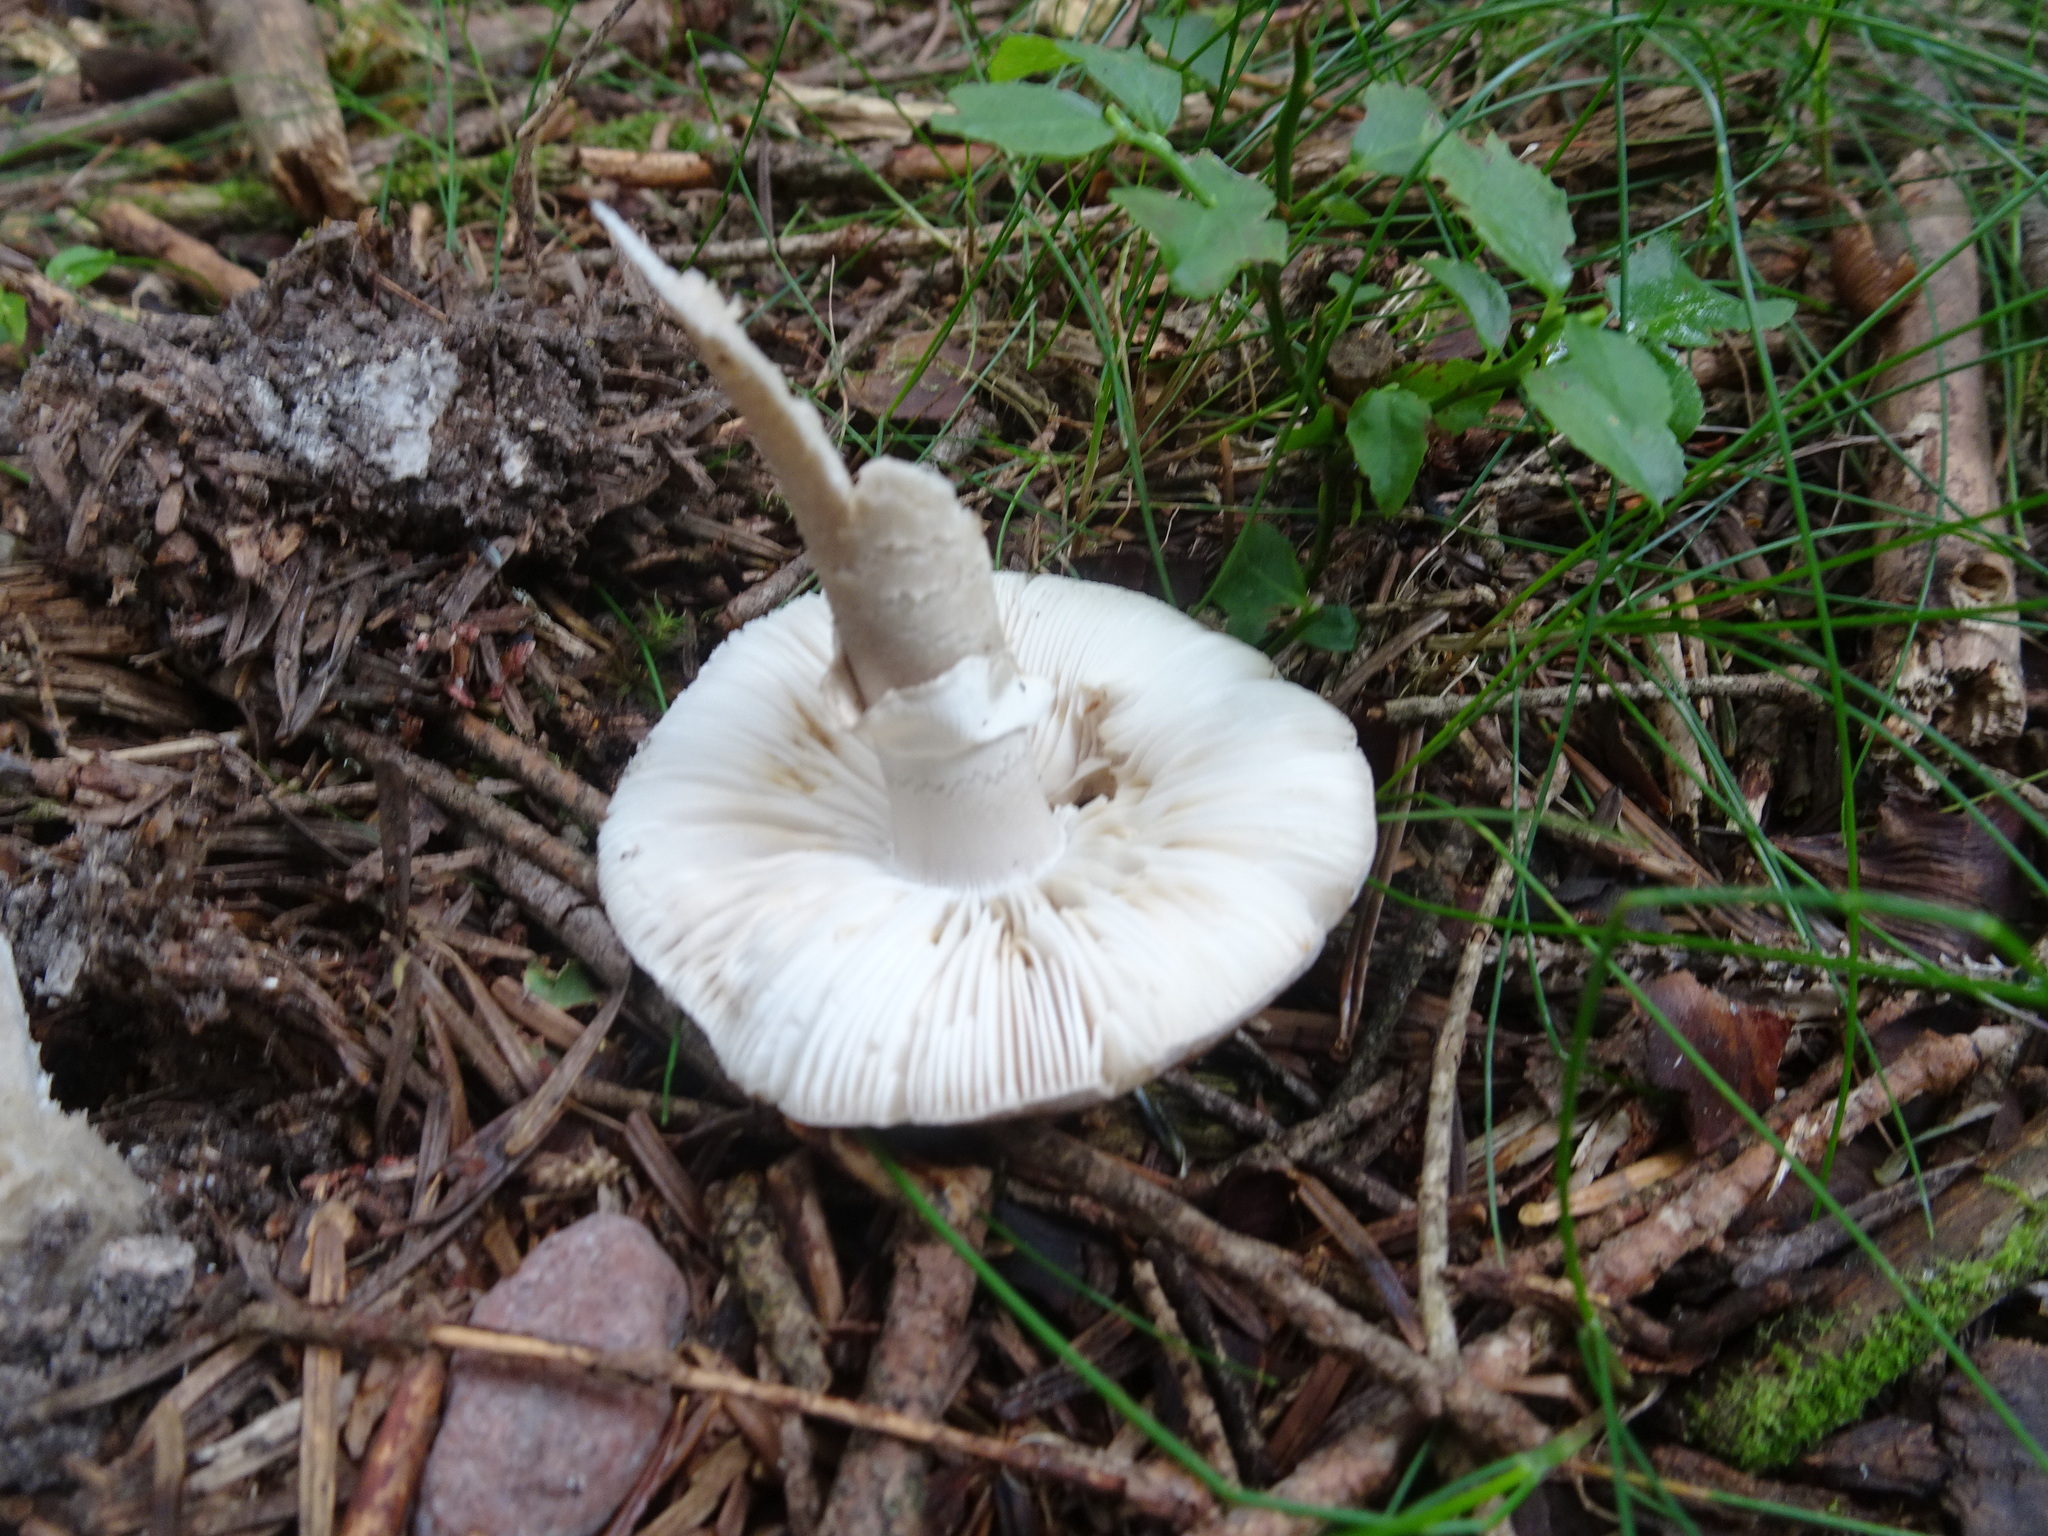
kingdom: Fungi
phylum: Basidiomycota
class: Agaricomycetes
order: Agaricales
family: Amanitaceae
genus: Amanita
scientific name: Amanita excelsa
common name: European false blusher
